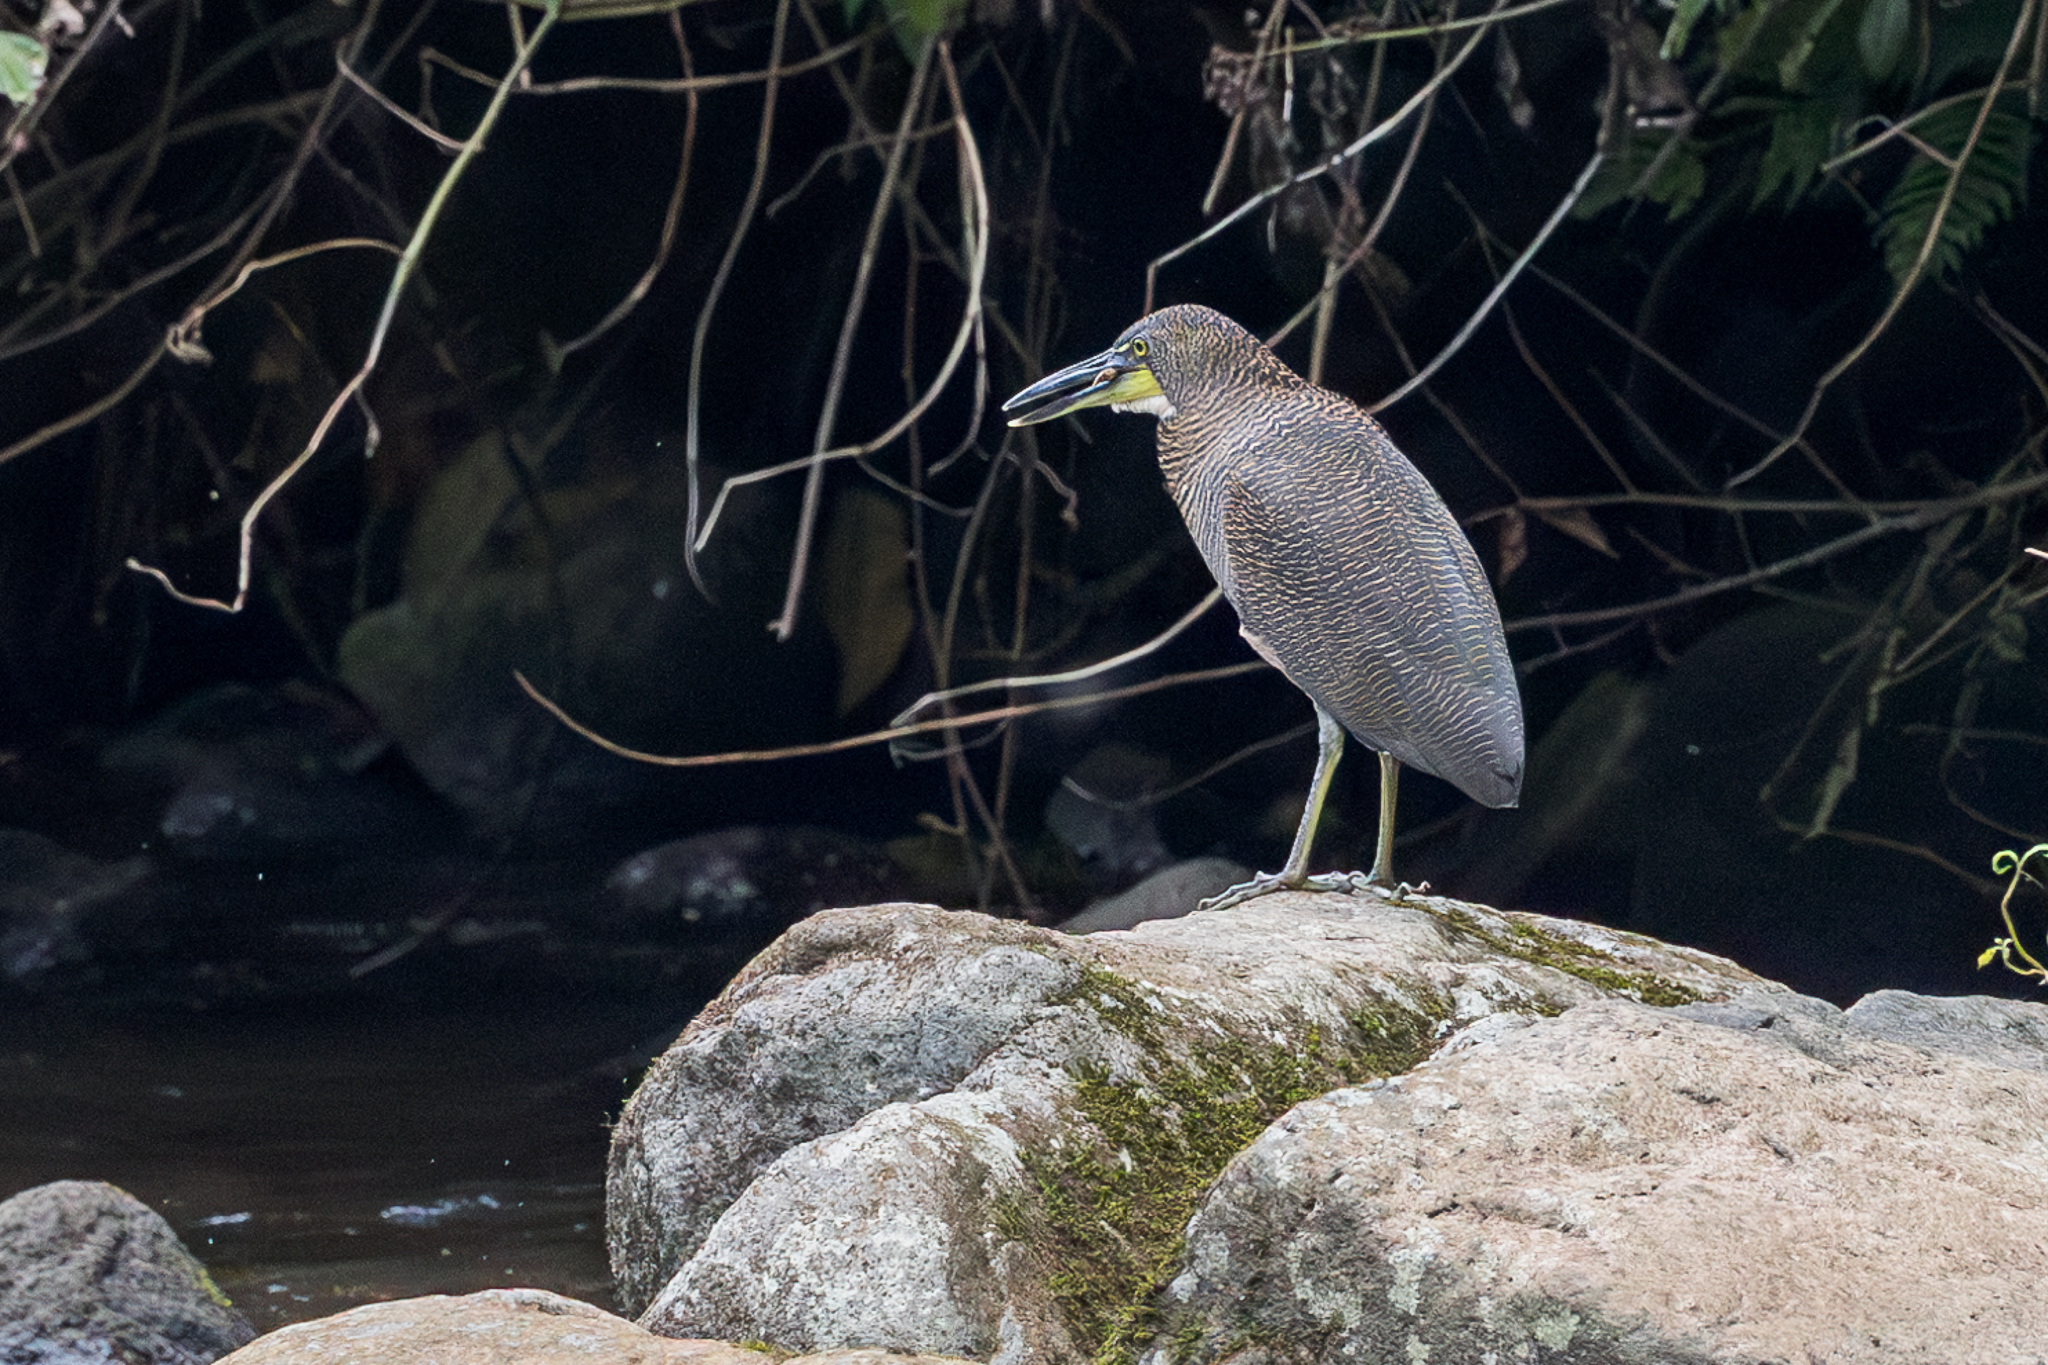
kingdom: Animalia
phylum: Chordata
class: Aves
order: Pelecaniformes
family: Ardeidae
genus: Tigrisoma
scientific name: Tigrisoma fasciatum
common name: Fasciated tiger-heron
